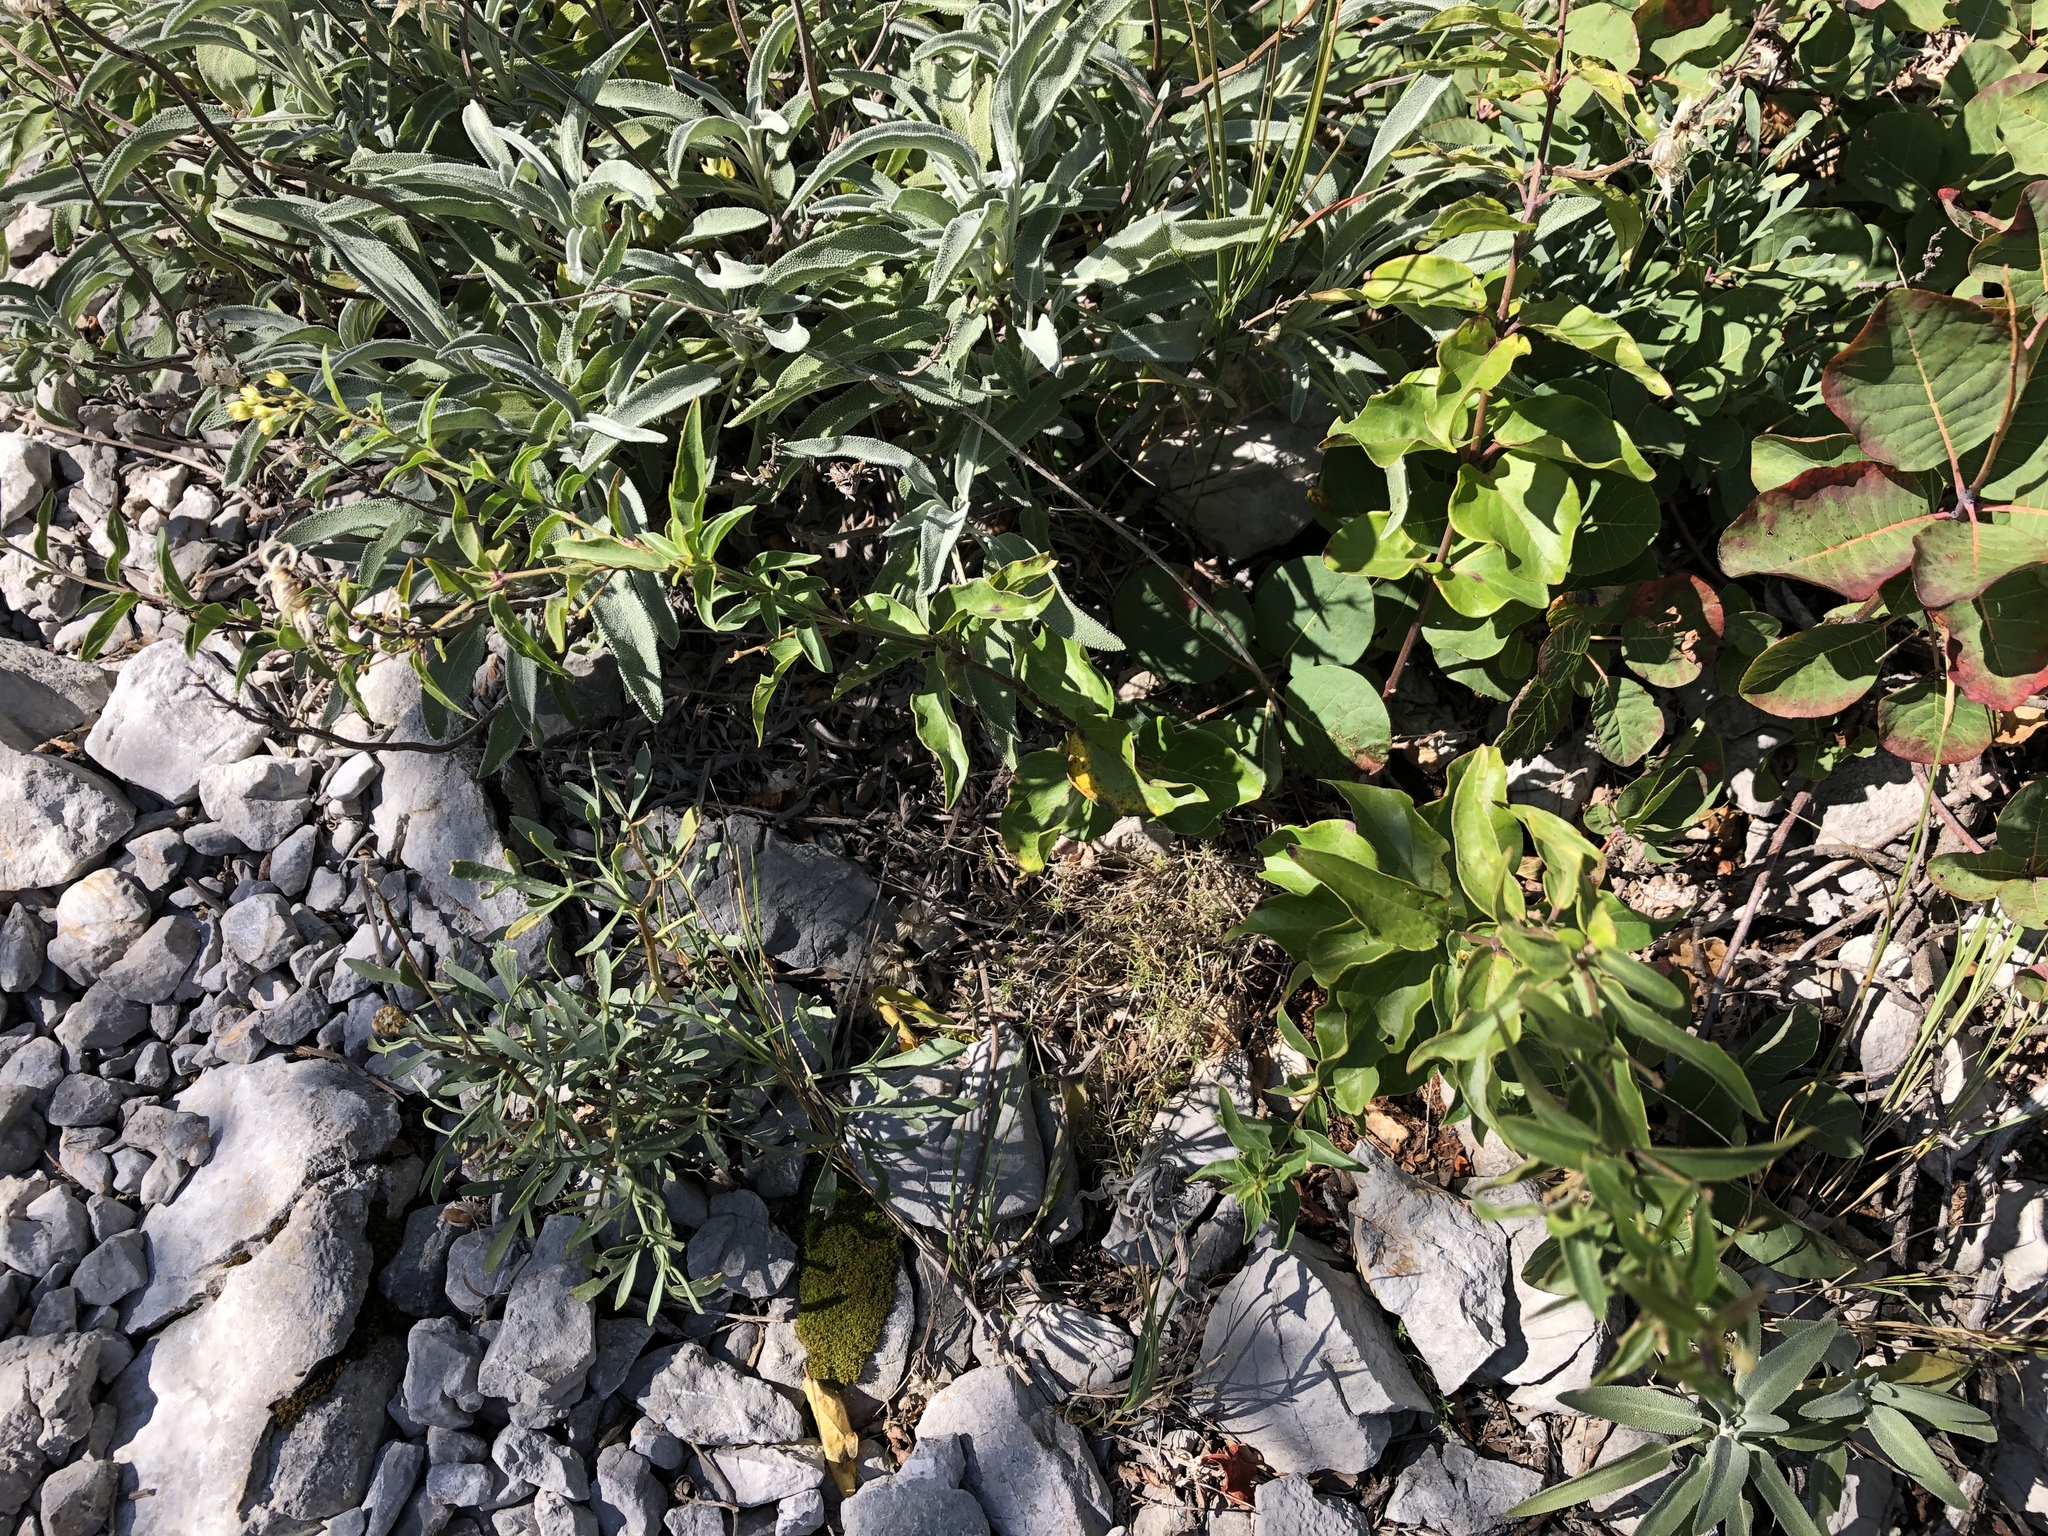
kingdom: Plantae
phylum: Tracheophyta
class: Magnoliopsida
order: Gentianales
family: Apocynaceae
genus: Vincetoxicum
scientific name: Vincetoxicum hirundinaria
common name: White swallowwort
